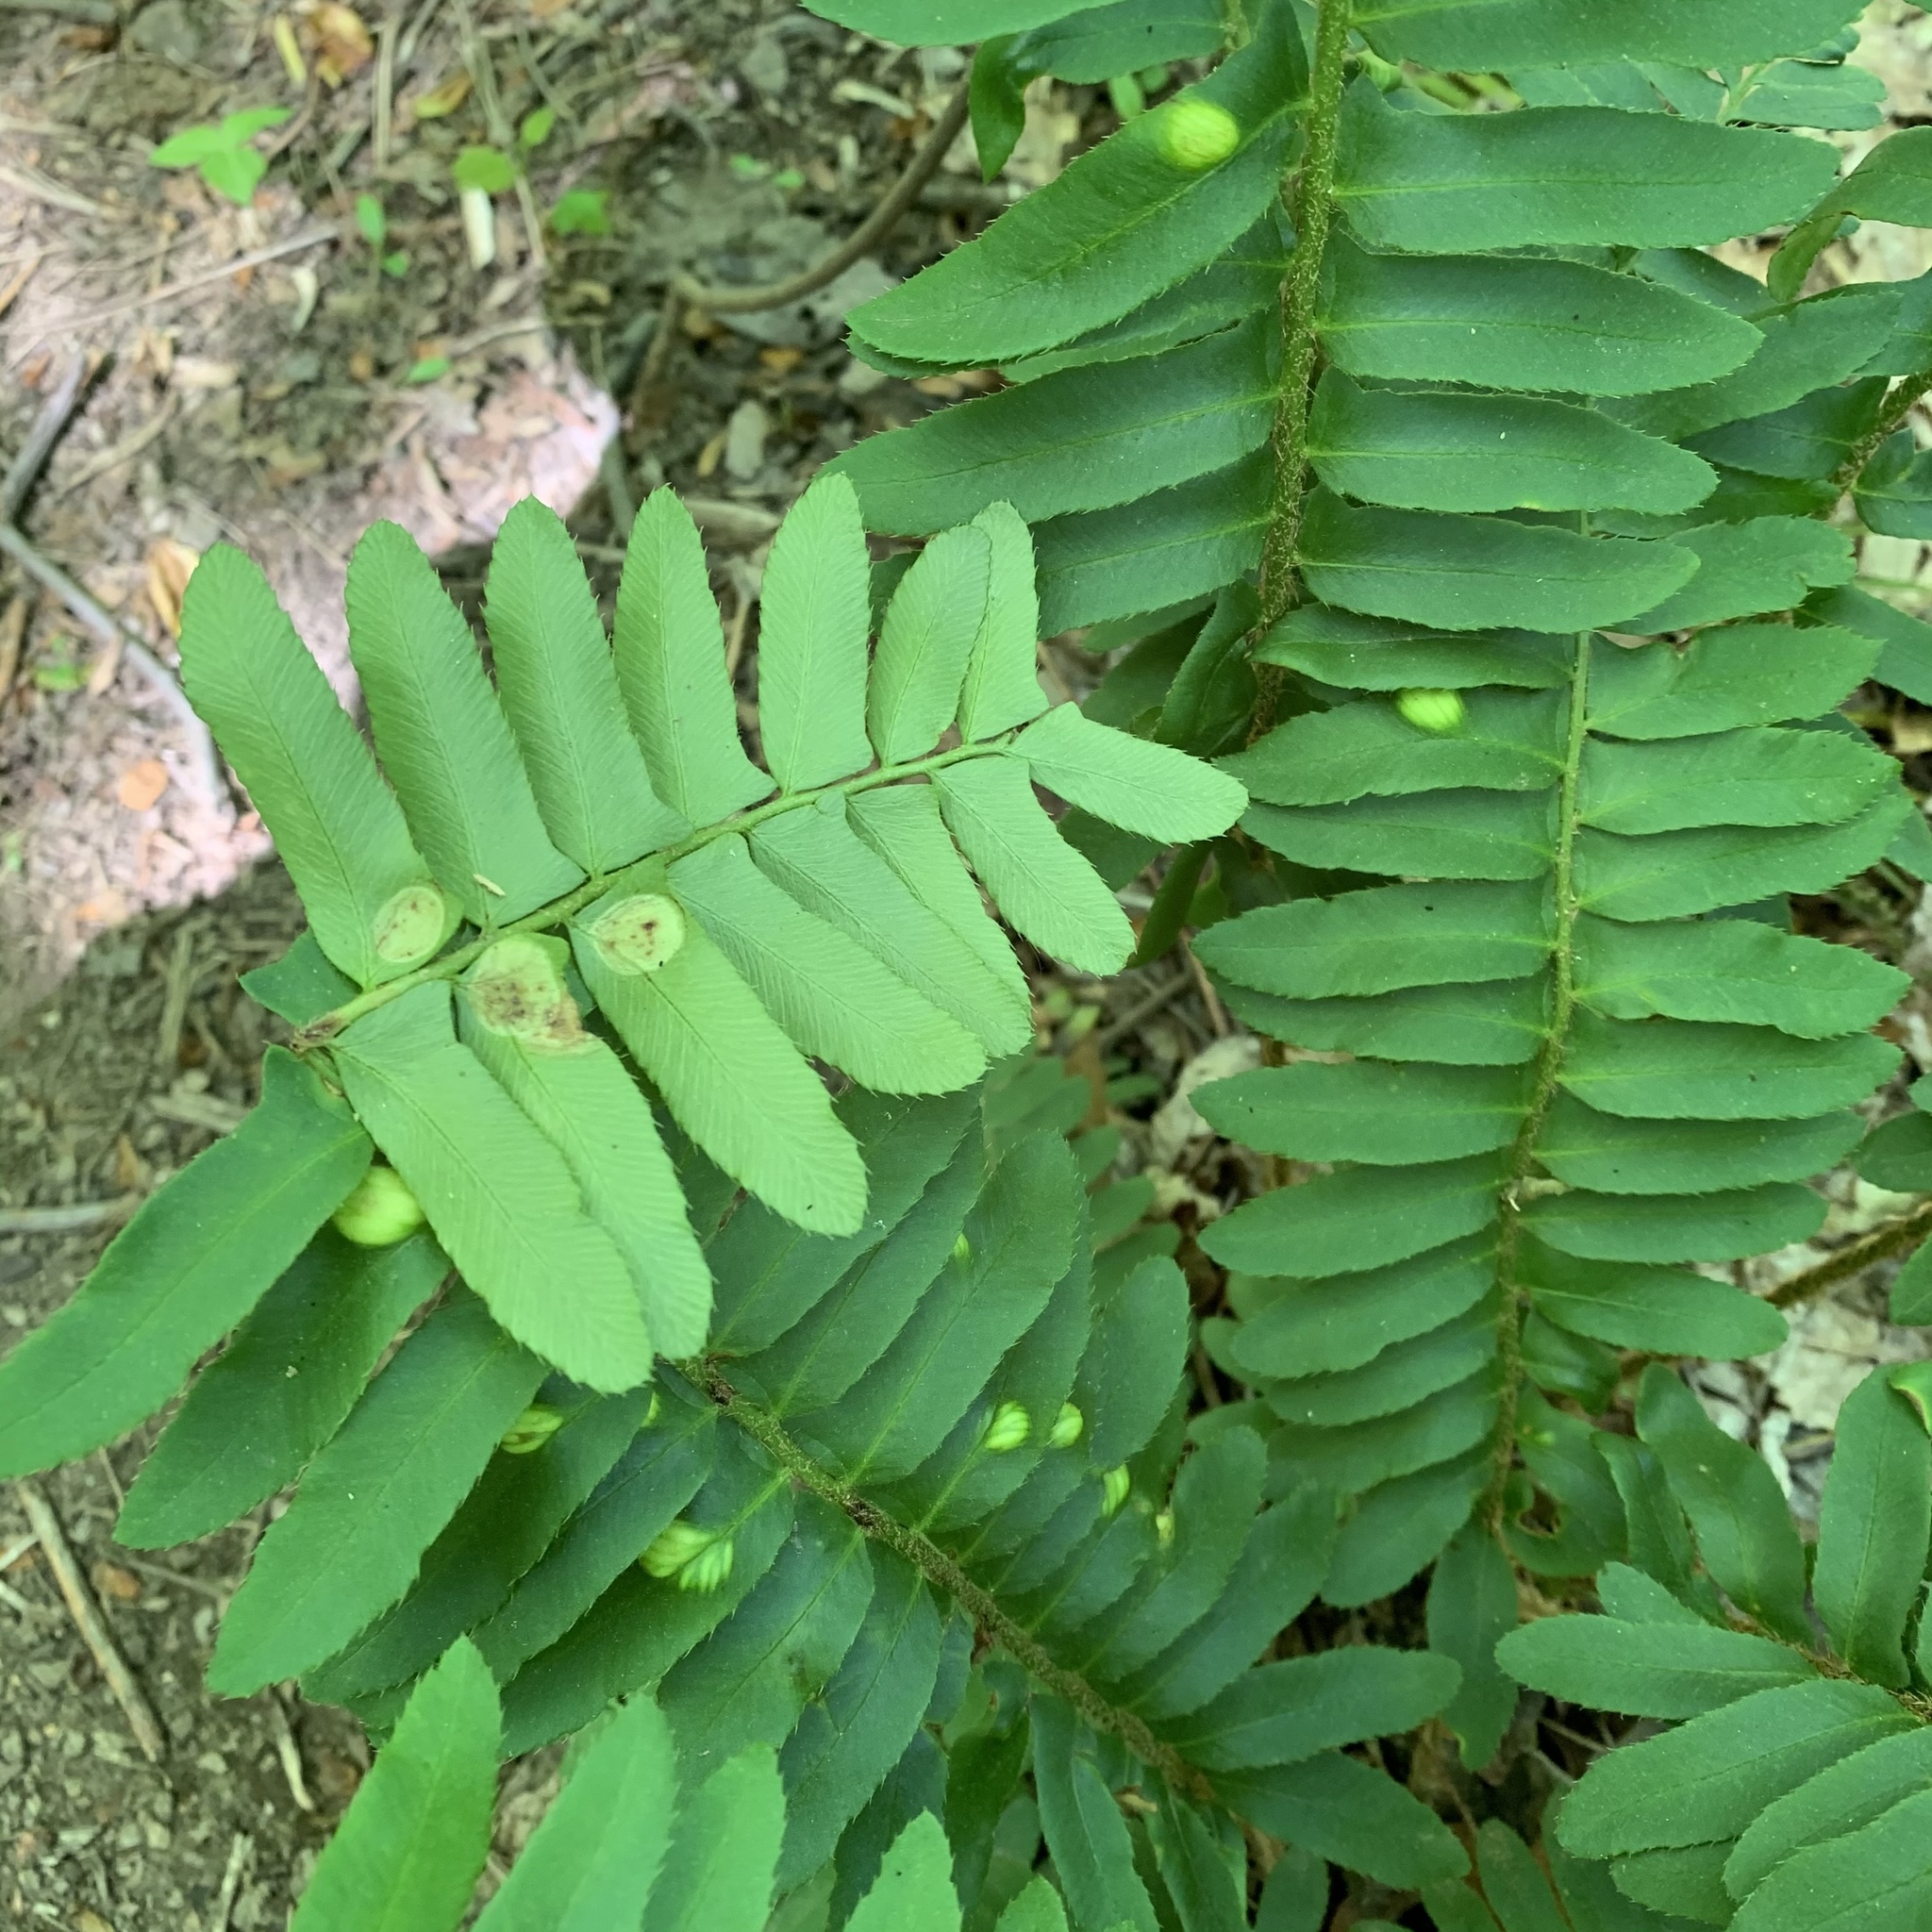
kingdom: Fungi
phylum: Ascomycota
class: Taphrinomycetes
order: Taphrinales
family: Taphrinaceae
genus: Taphrina
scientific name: Taphrina polystichi
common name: Christmas fern leaf curl
